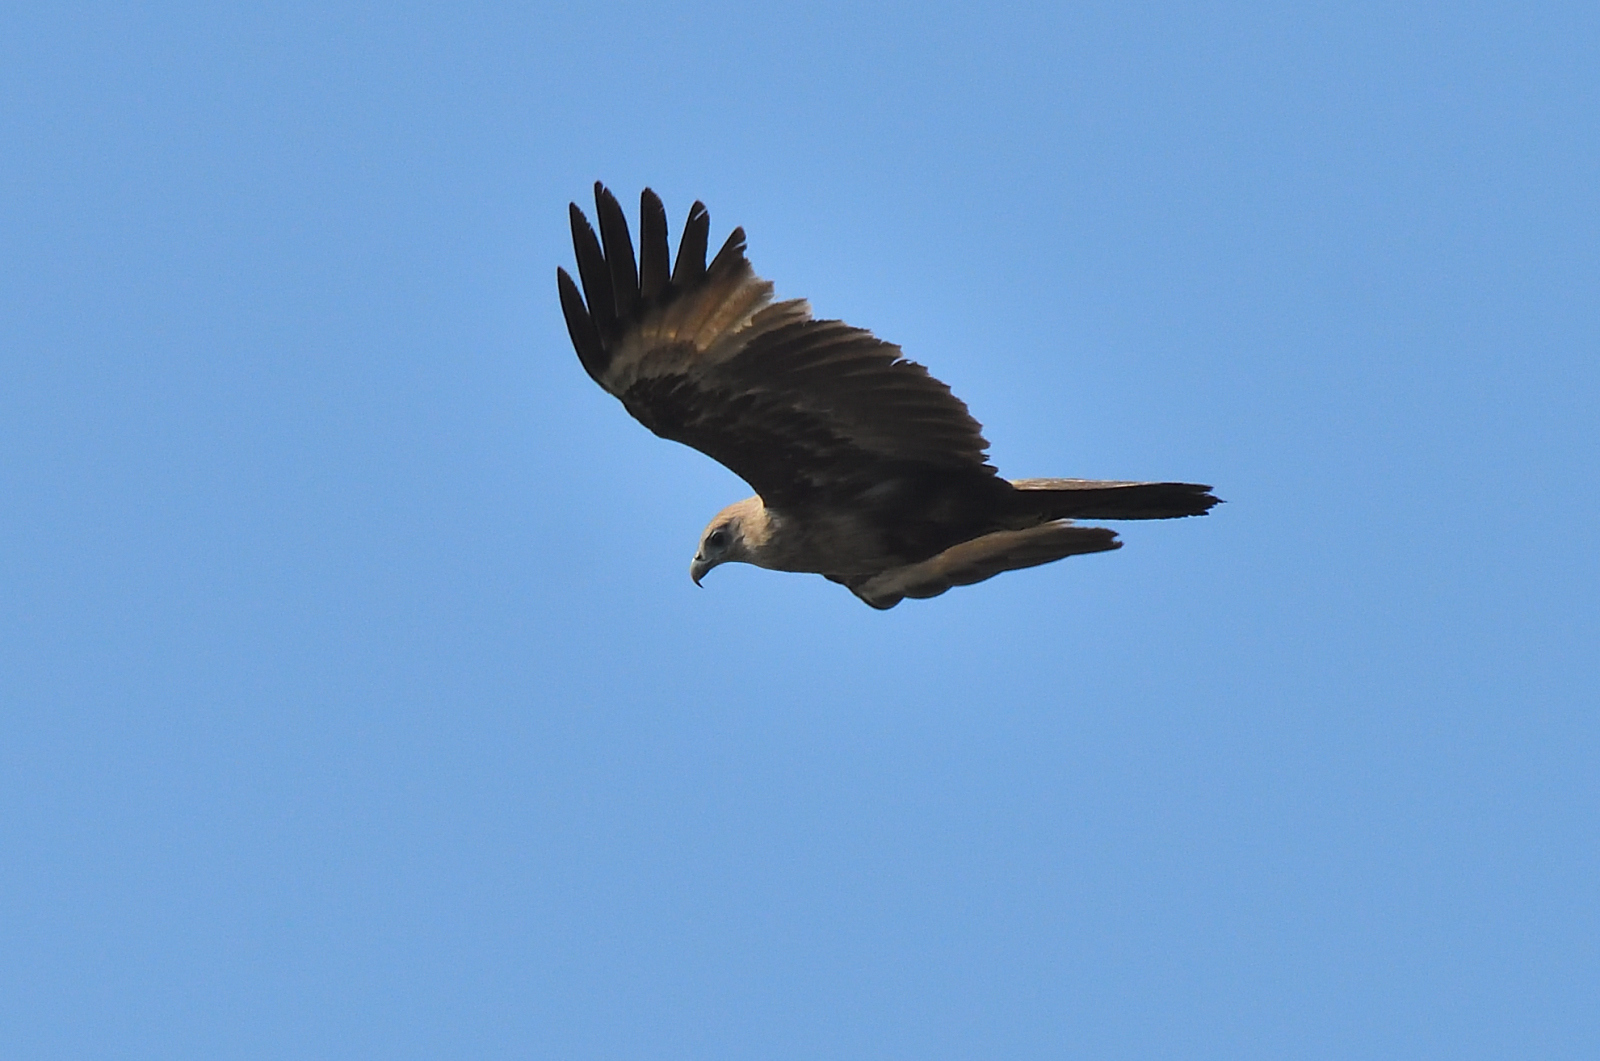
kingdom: Animalia
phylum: Chordata
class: Aves
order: Accipitriformes
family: Accipitridae
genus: Haliastur
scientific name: Haliastur indus
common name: Brahminy kite
